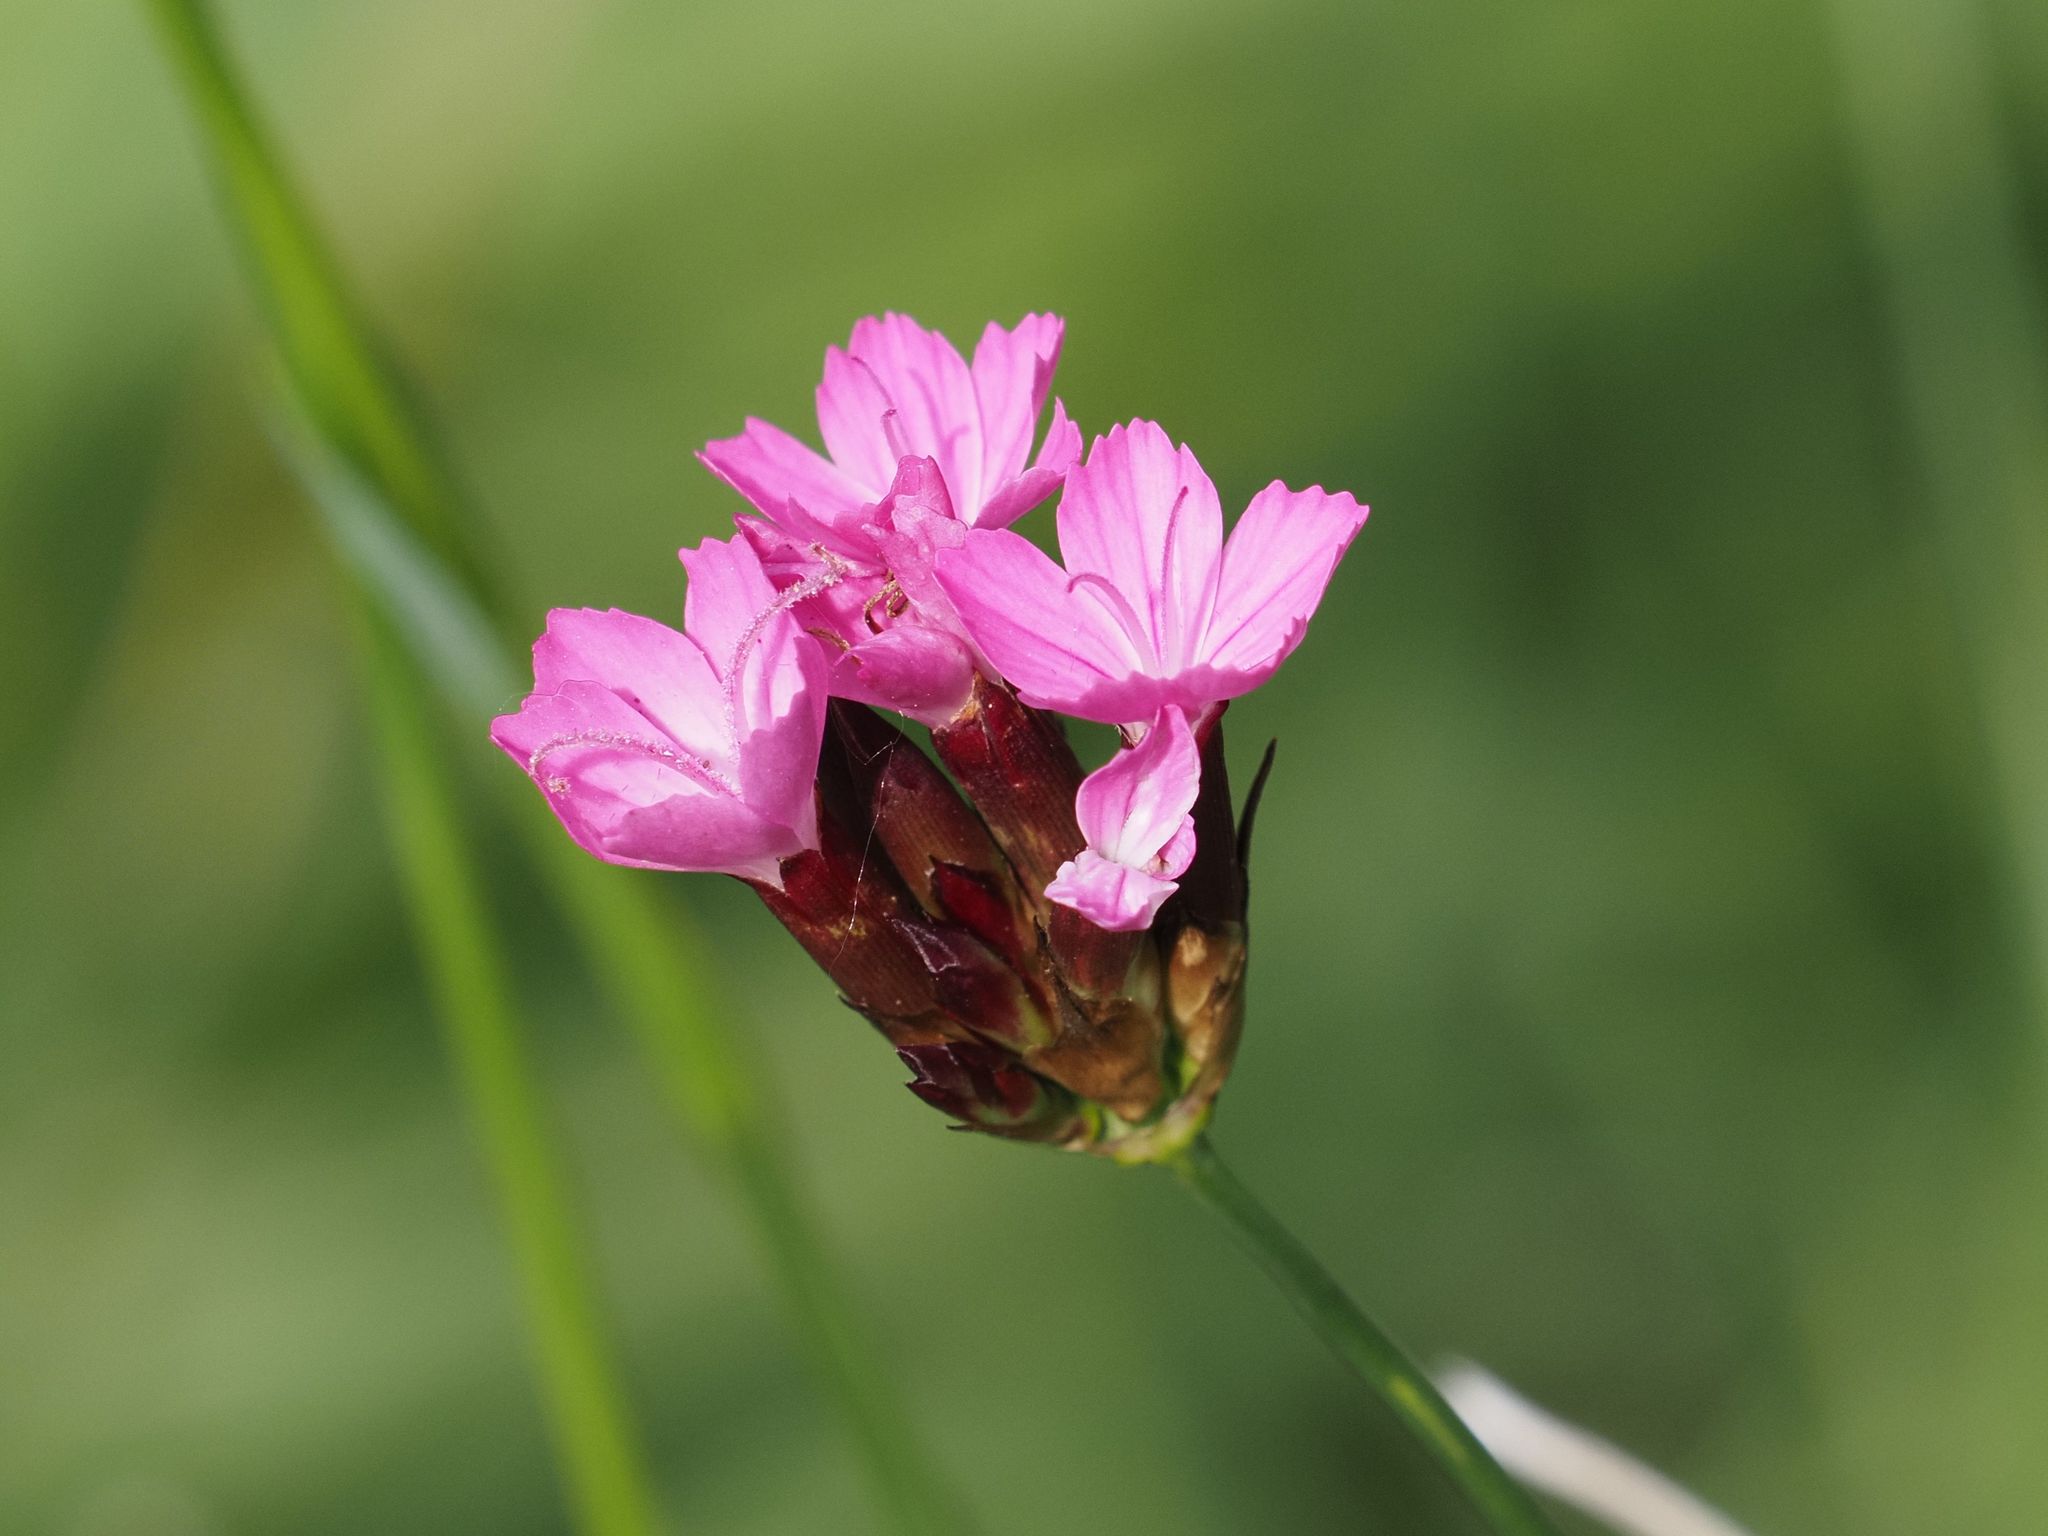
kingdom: Plantae
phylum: Tracheophyta
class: Magnoliopsida
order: Caryophyllales
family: Caryophyllaceae
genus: Dianthus
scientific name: Dianthus carthusianorum
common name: Carthusian pink
